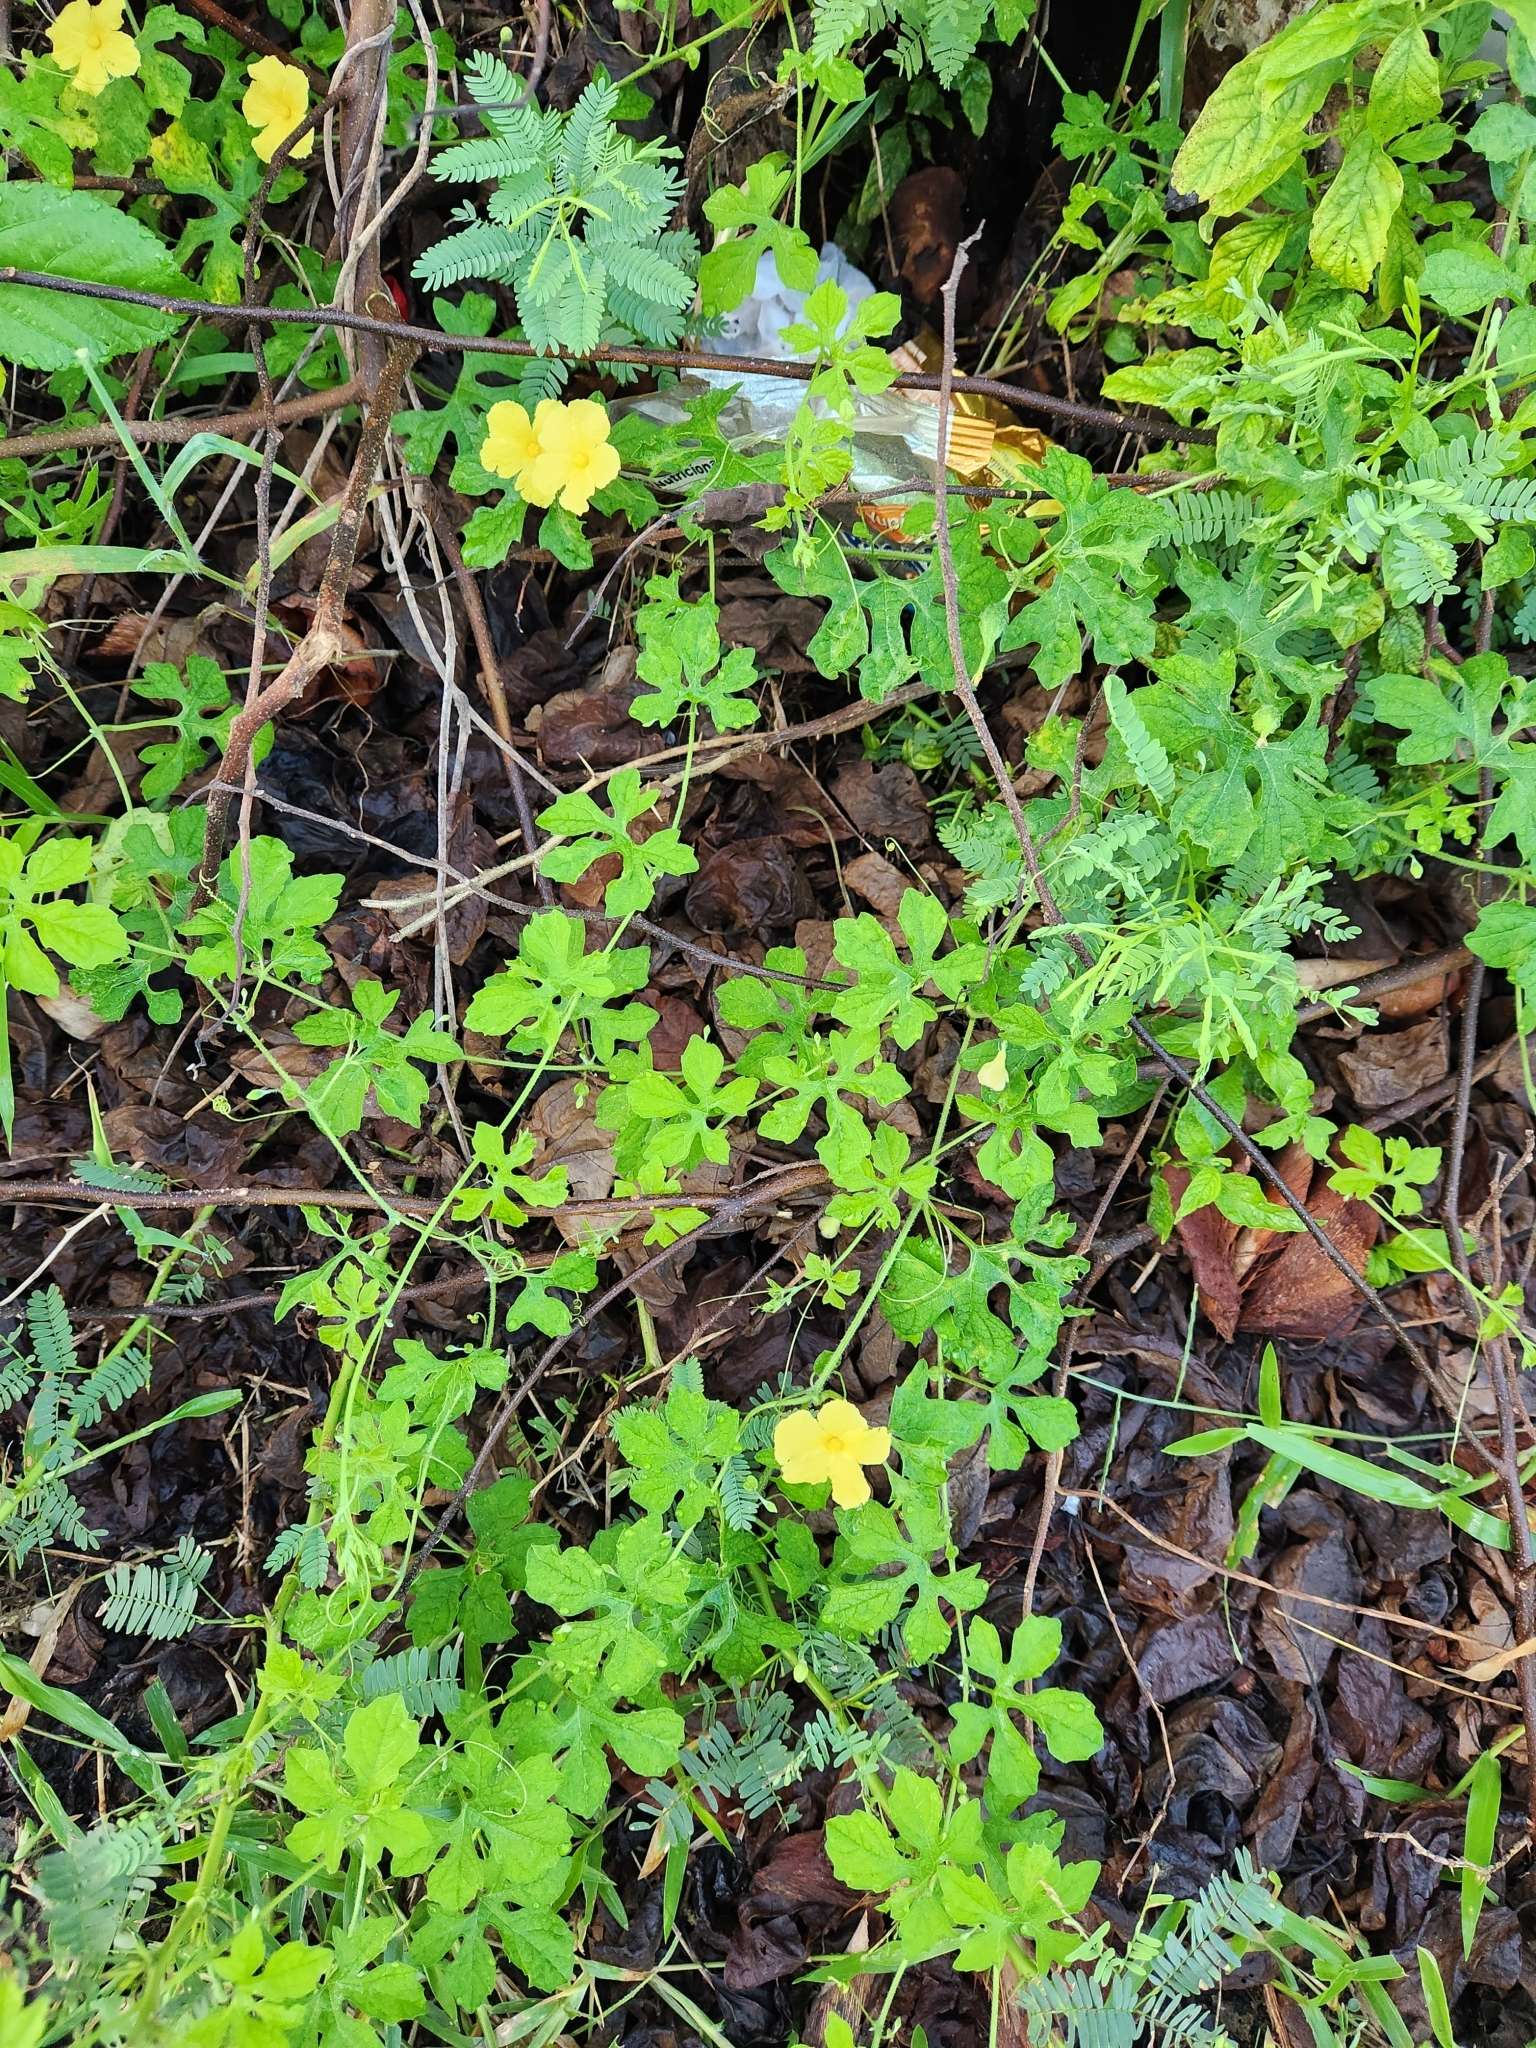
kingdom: Plantae
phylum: Tracheophyta
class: Magnoliopsida
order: Cucurbitales
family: Cucurbitaceae
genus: Momordica
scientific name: Momordica charantia
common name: Balsampear
